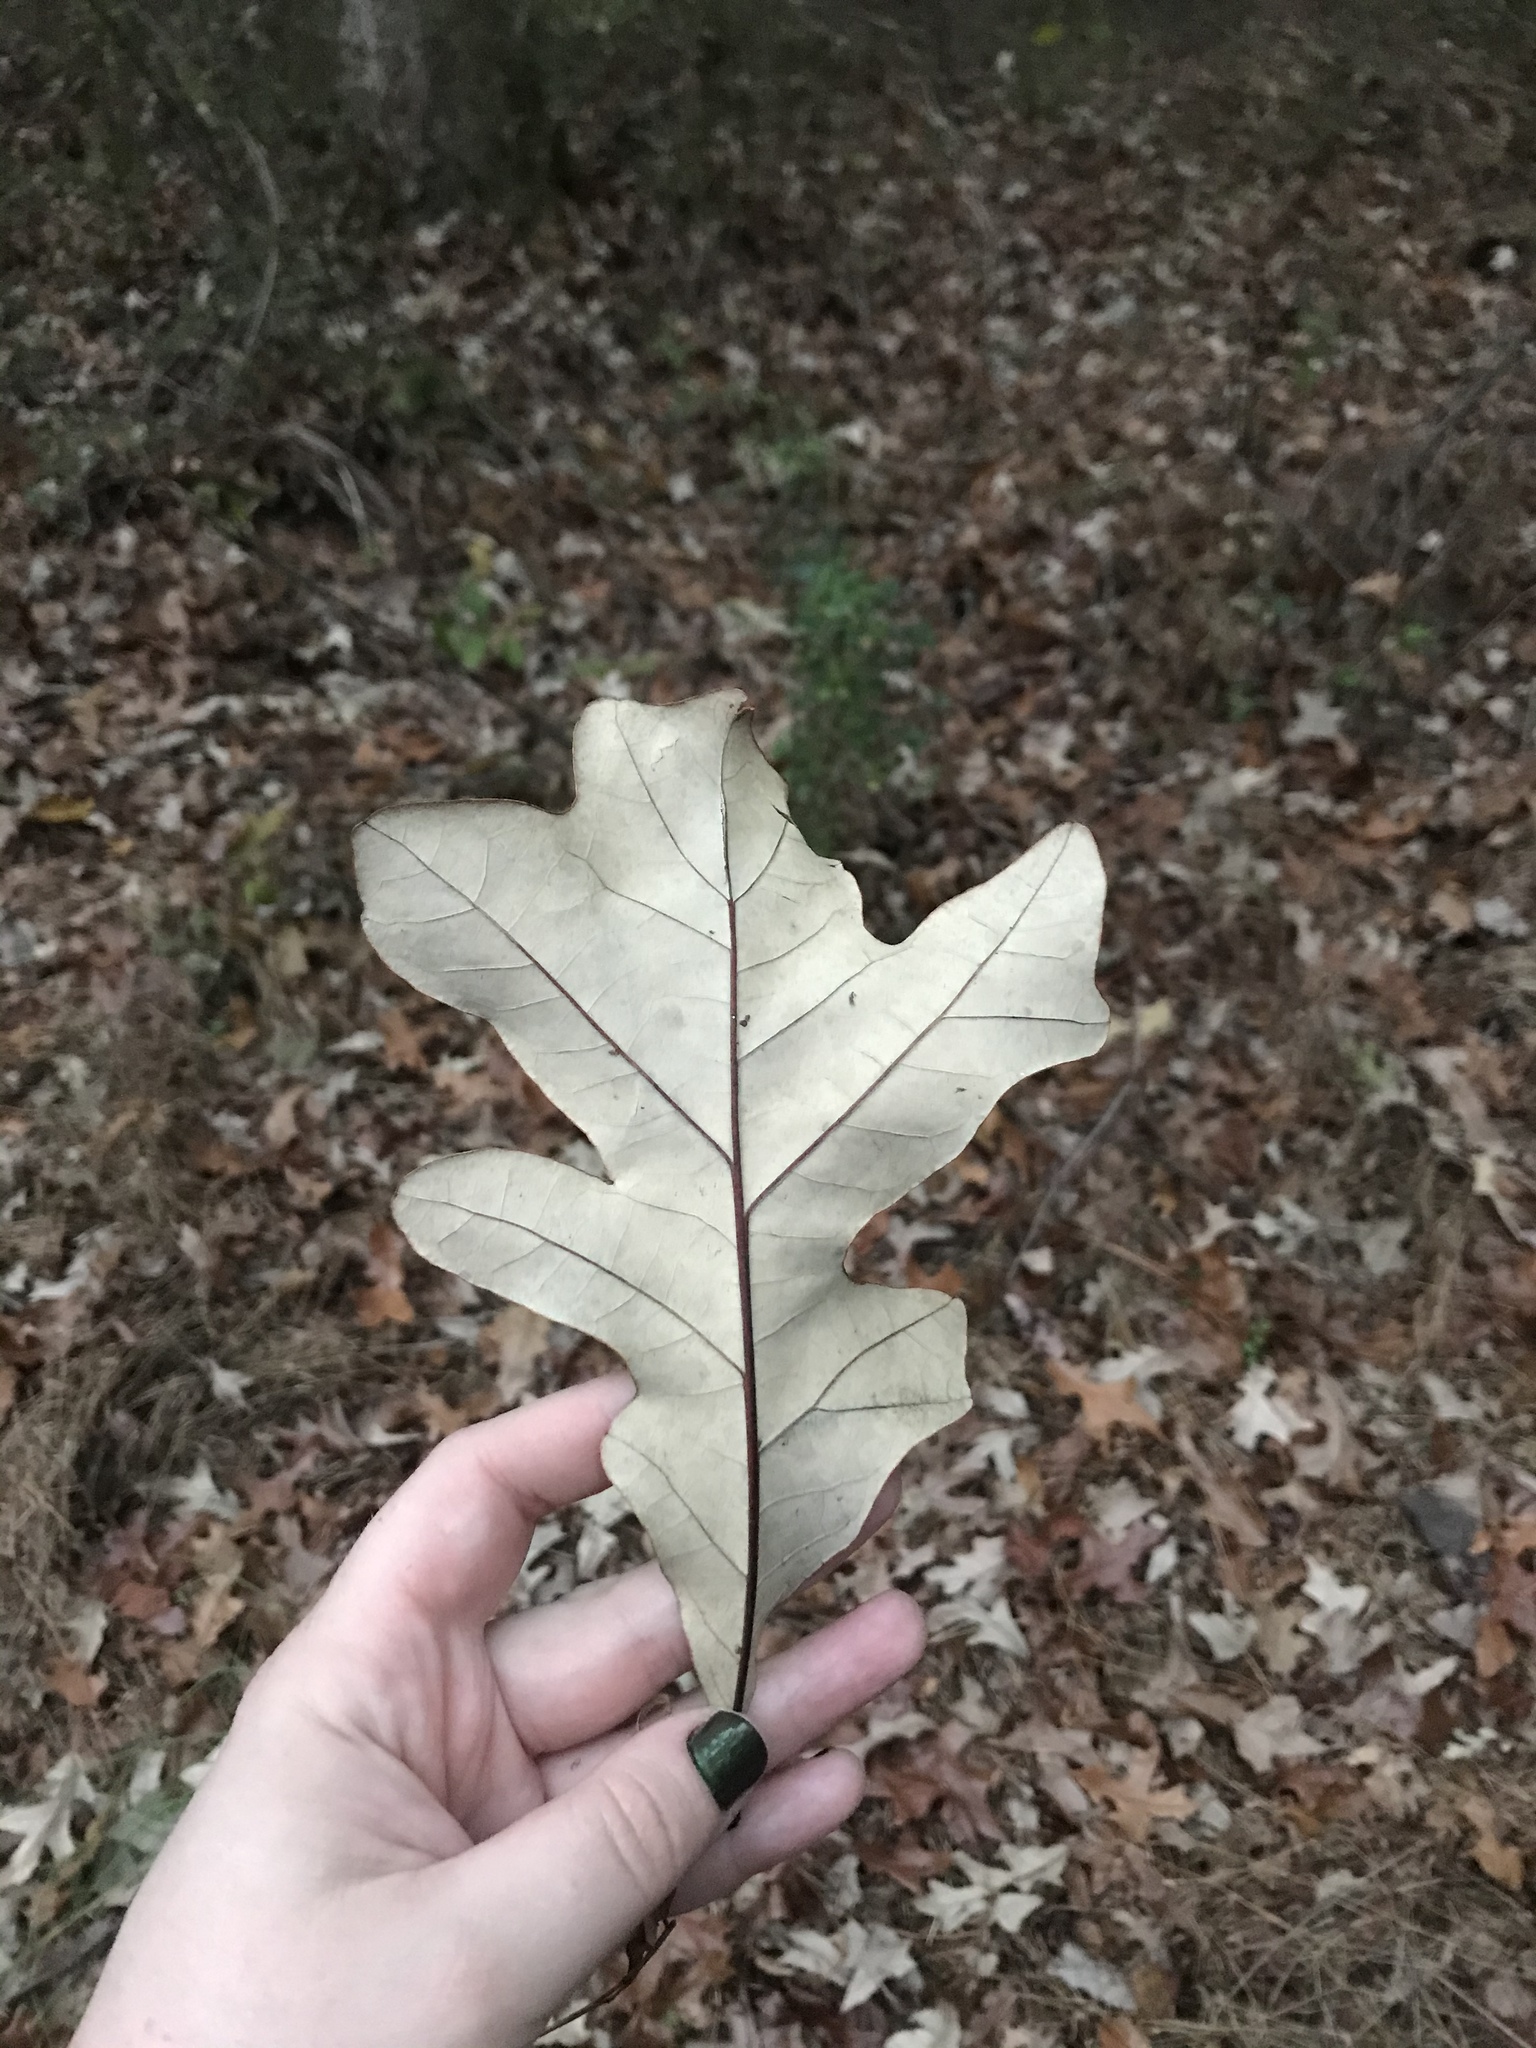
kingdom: Plantae
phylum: Tracheophyta
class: Magnoliopsida
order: Fagales
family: Fagaceae
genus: Quercus
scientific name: Quercus stellata
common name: Post oak
